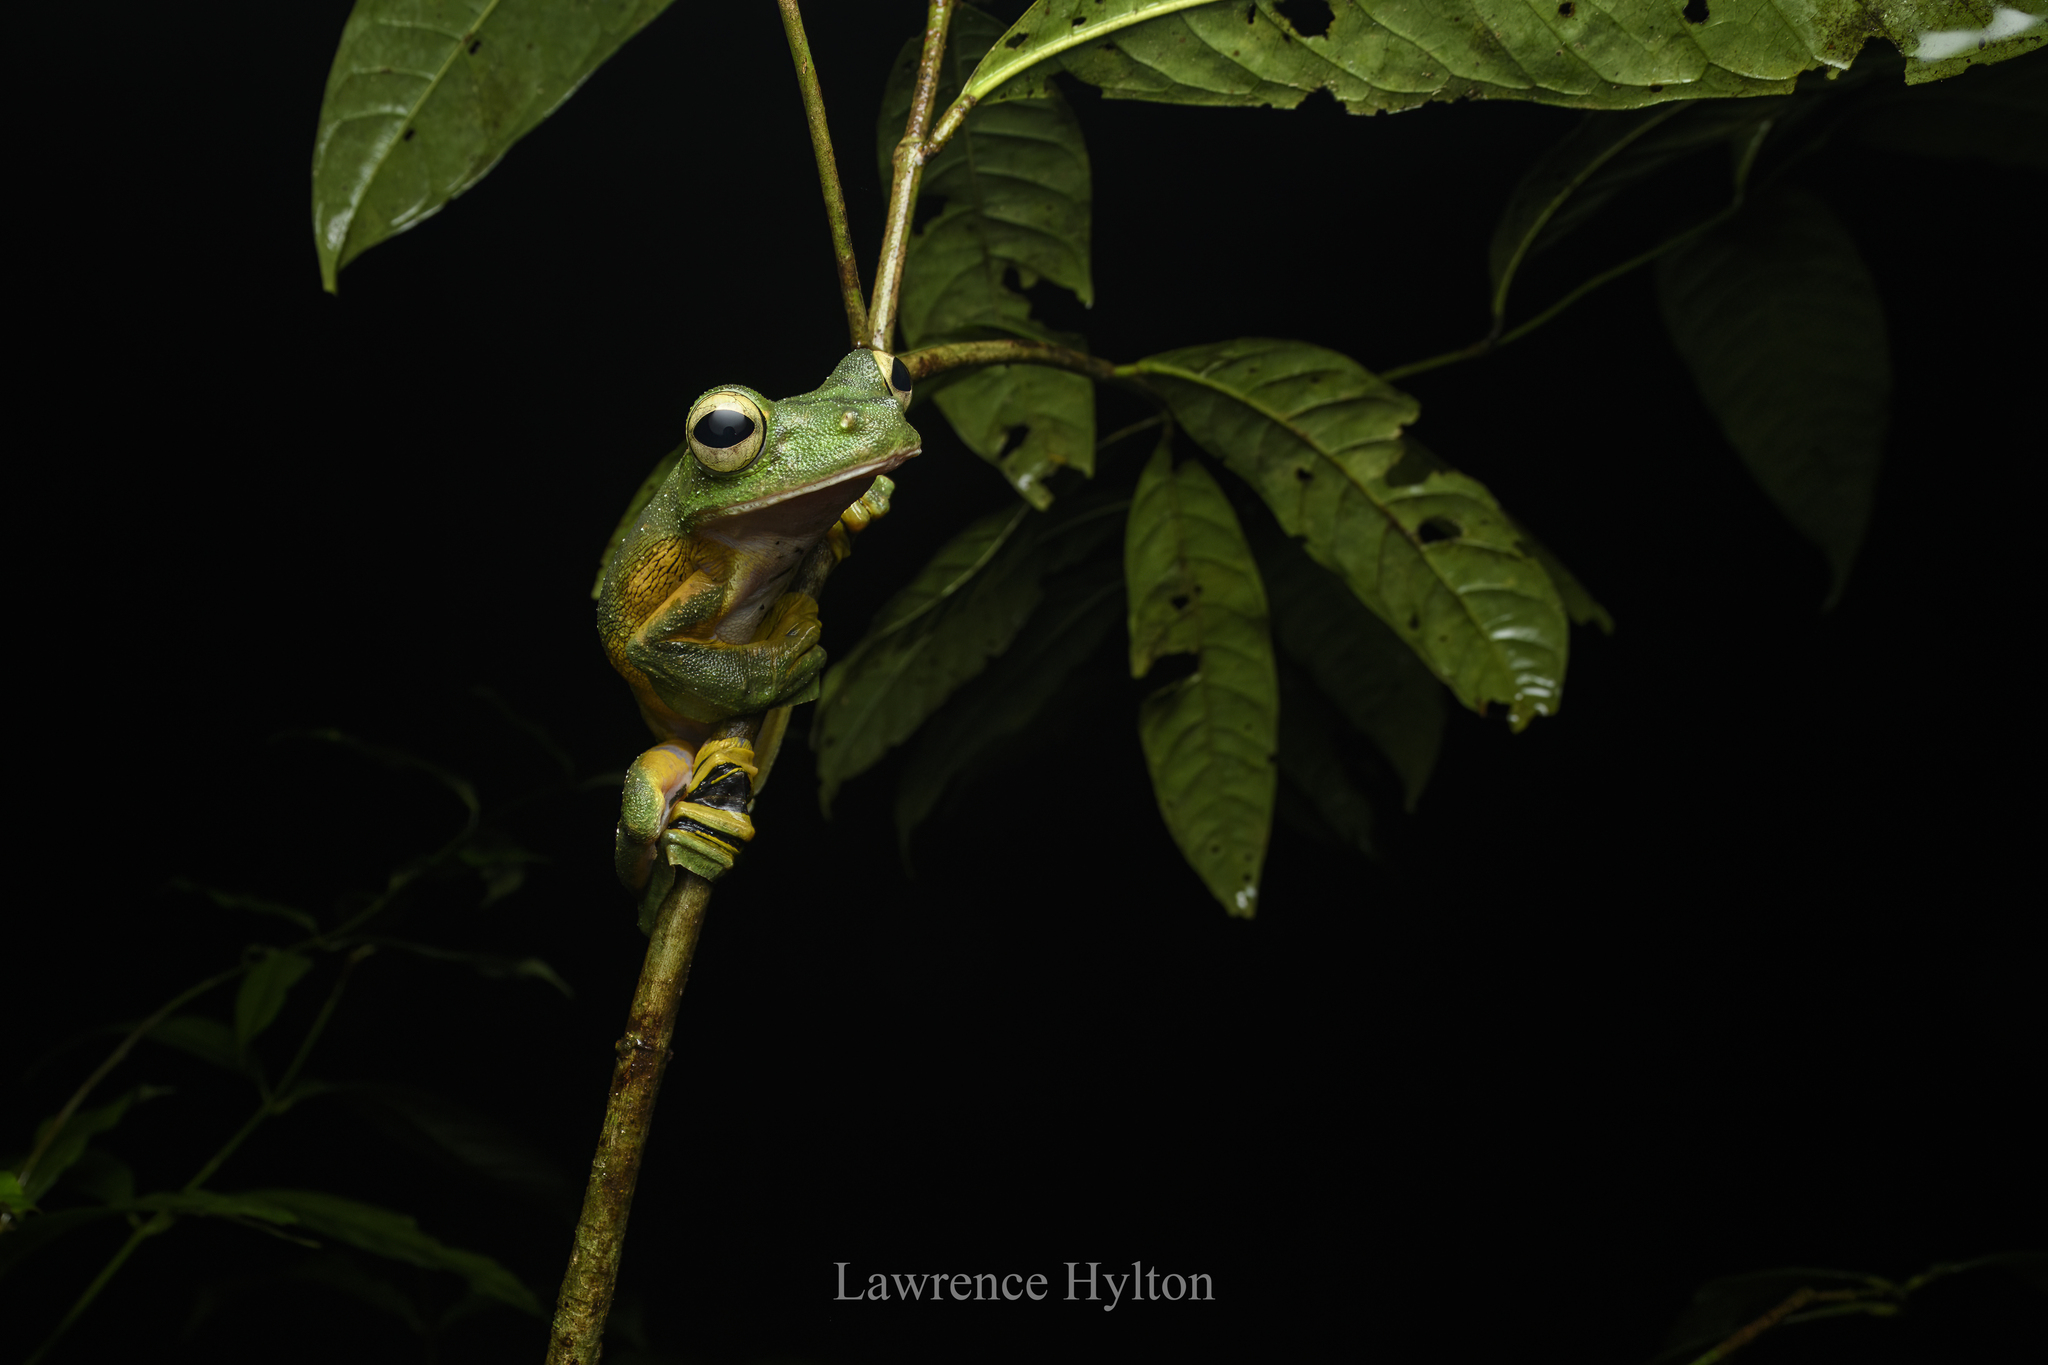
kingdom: Animalia
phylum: Chordata
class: Amphibia
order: Anura
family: Rhacophoridae
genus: Rhacophorus
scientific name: Rhacophorus nigropalmatus
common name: Wallace’s flying frog
